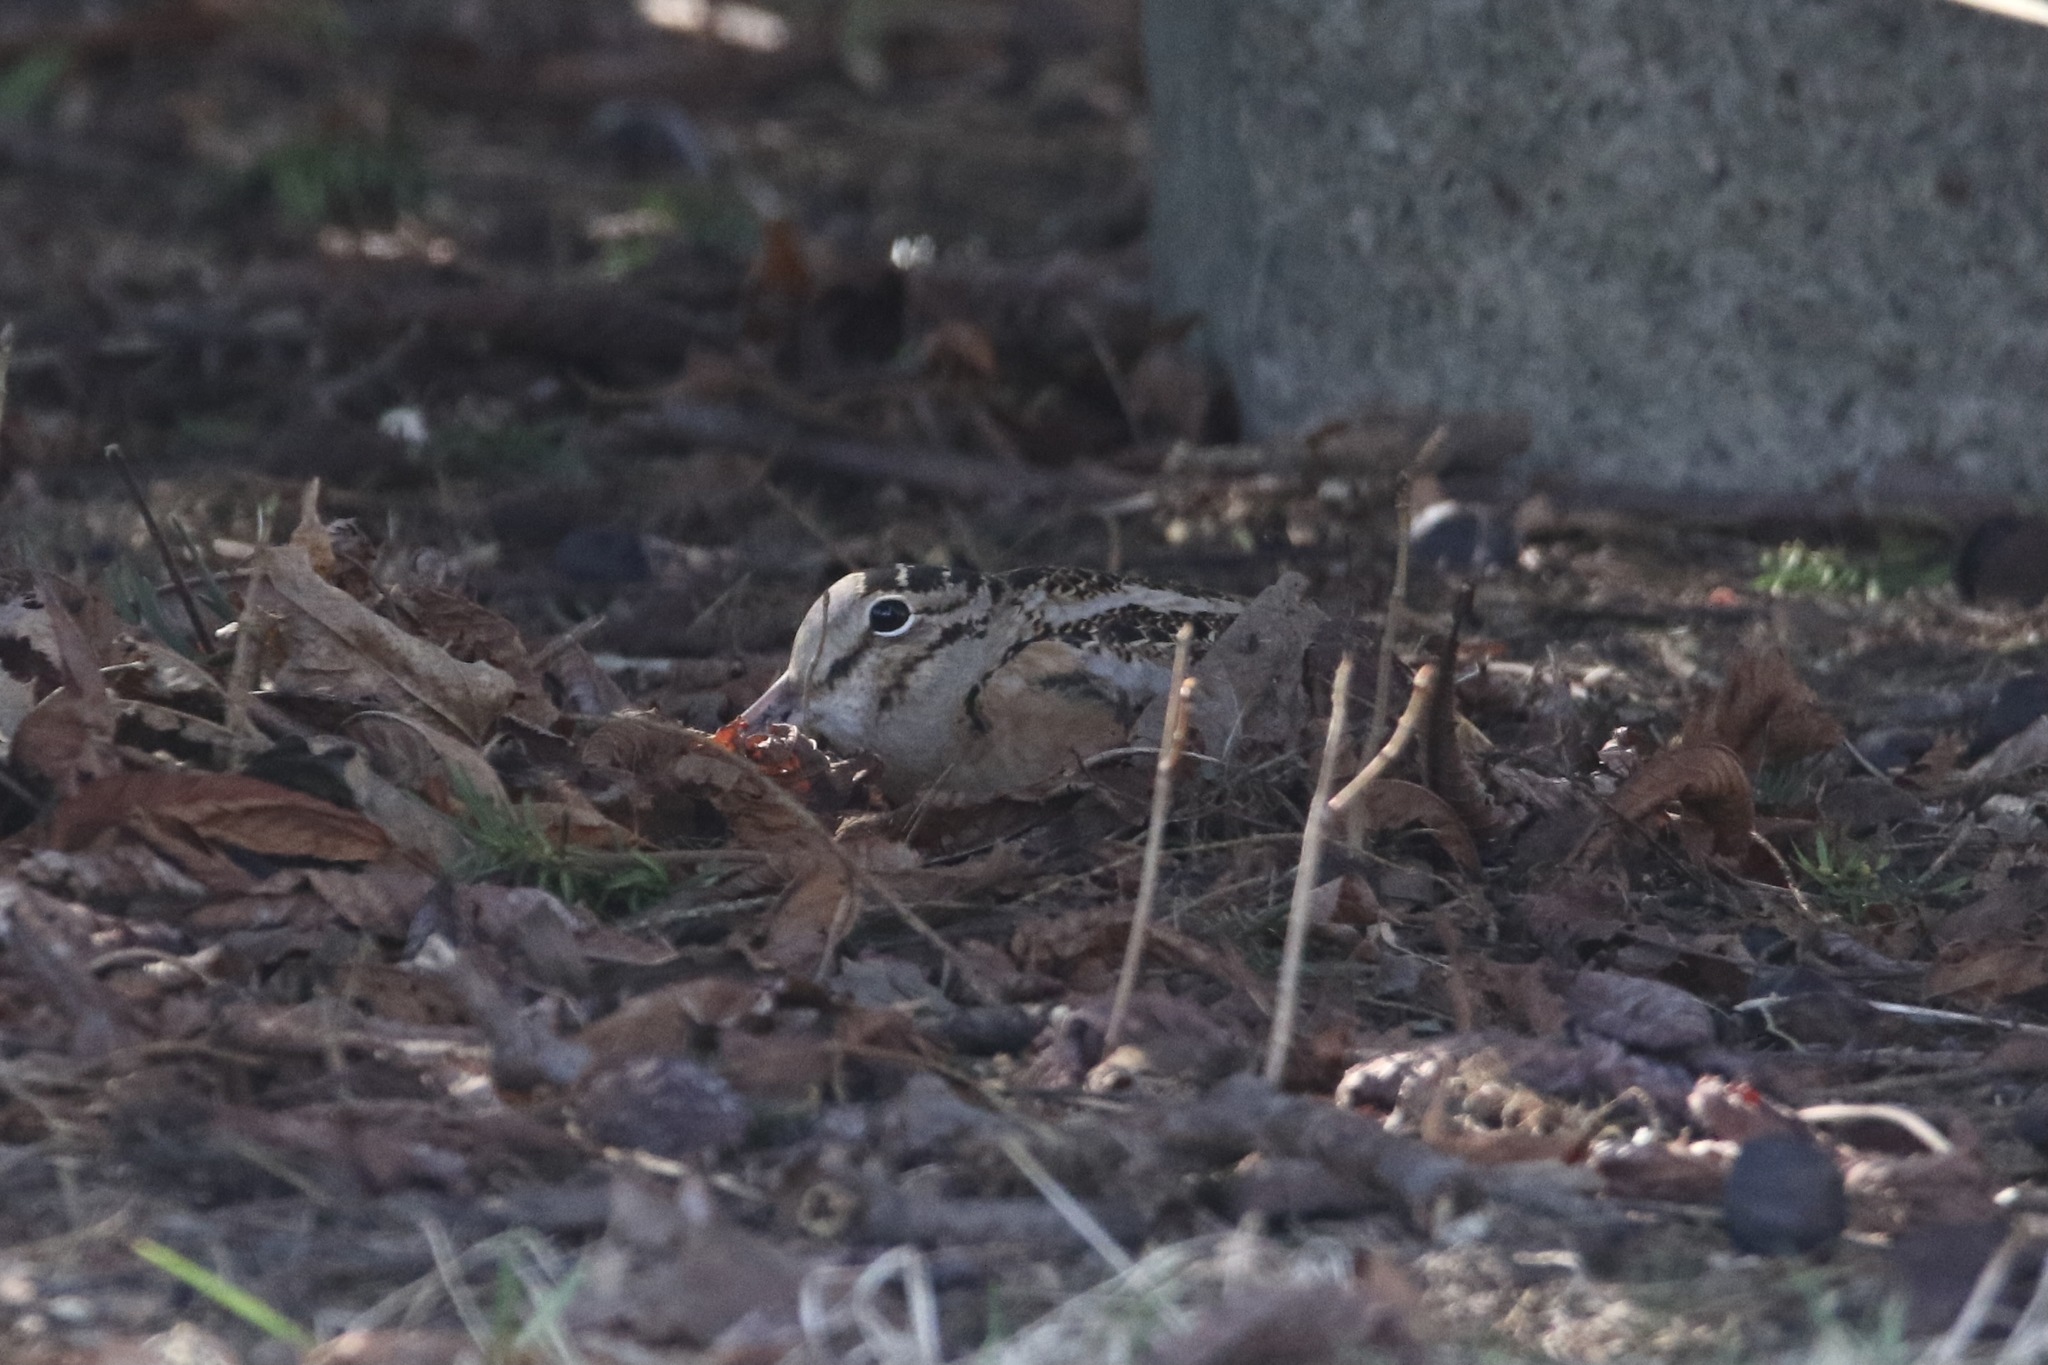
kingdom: Animalia
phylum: Chordata
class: Aves
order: Charadriiformes
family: Scolopacidae
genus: Scolopax
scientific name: Scolopax minor
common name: American woodcock
